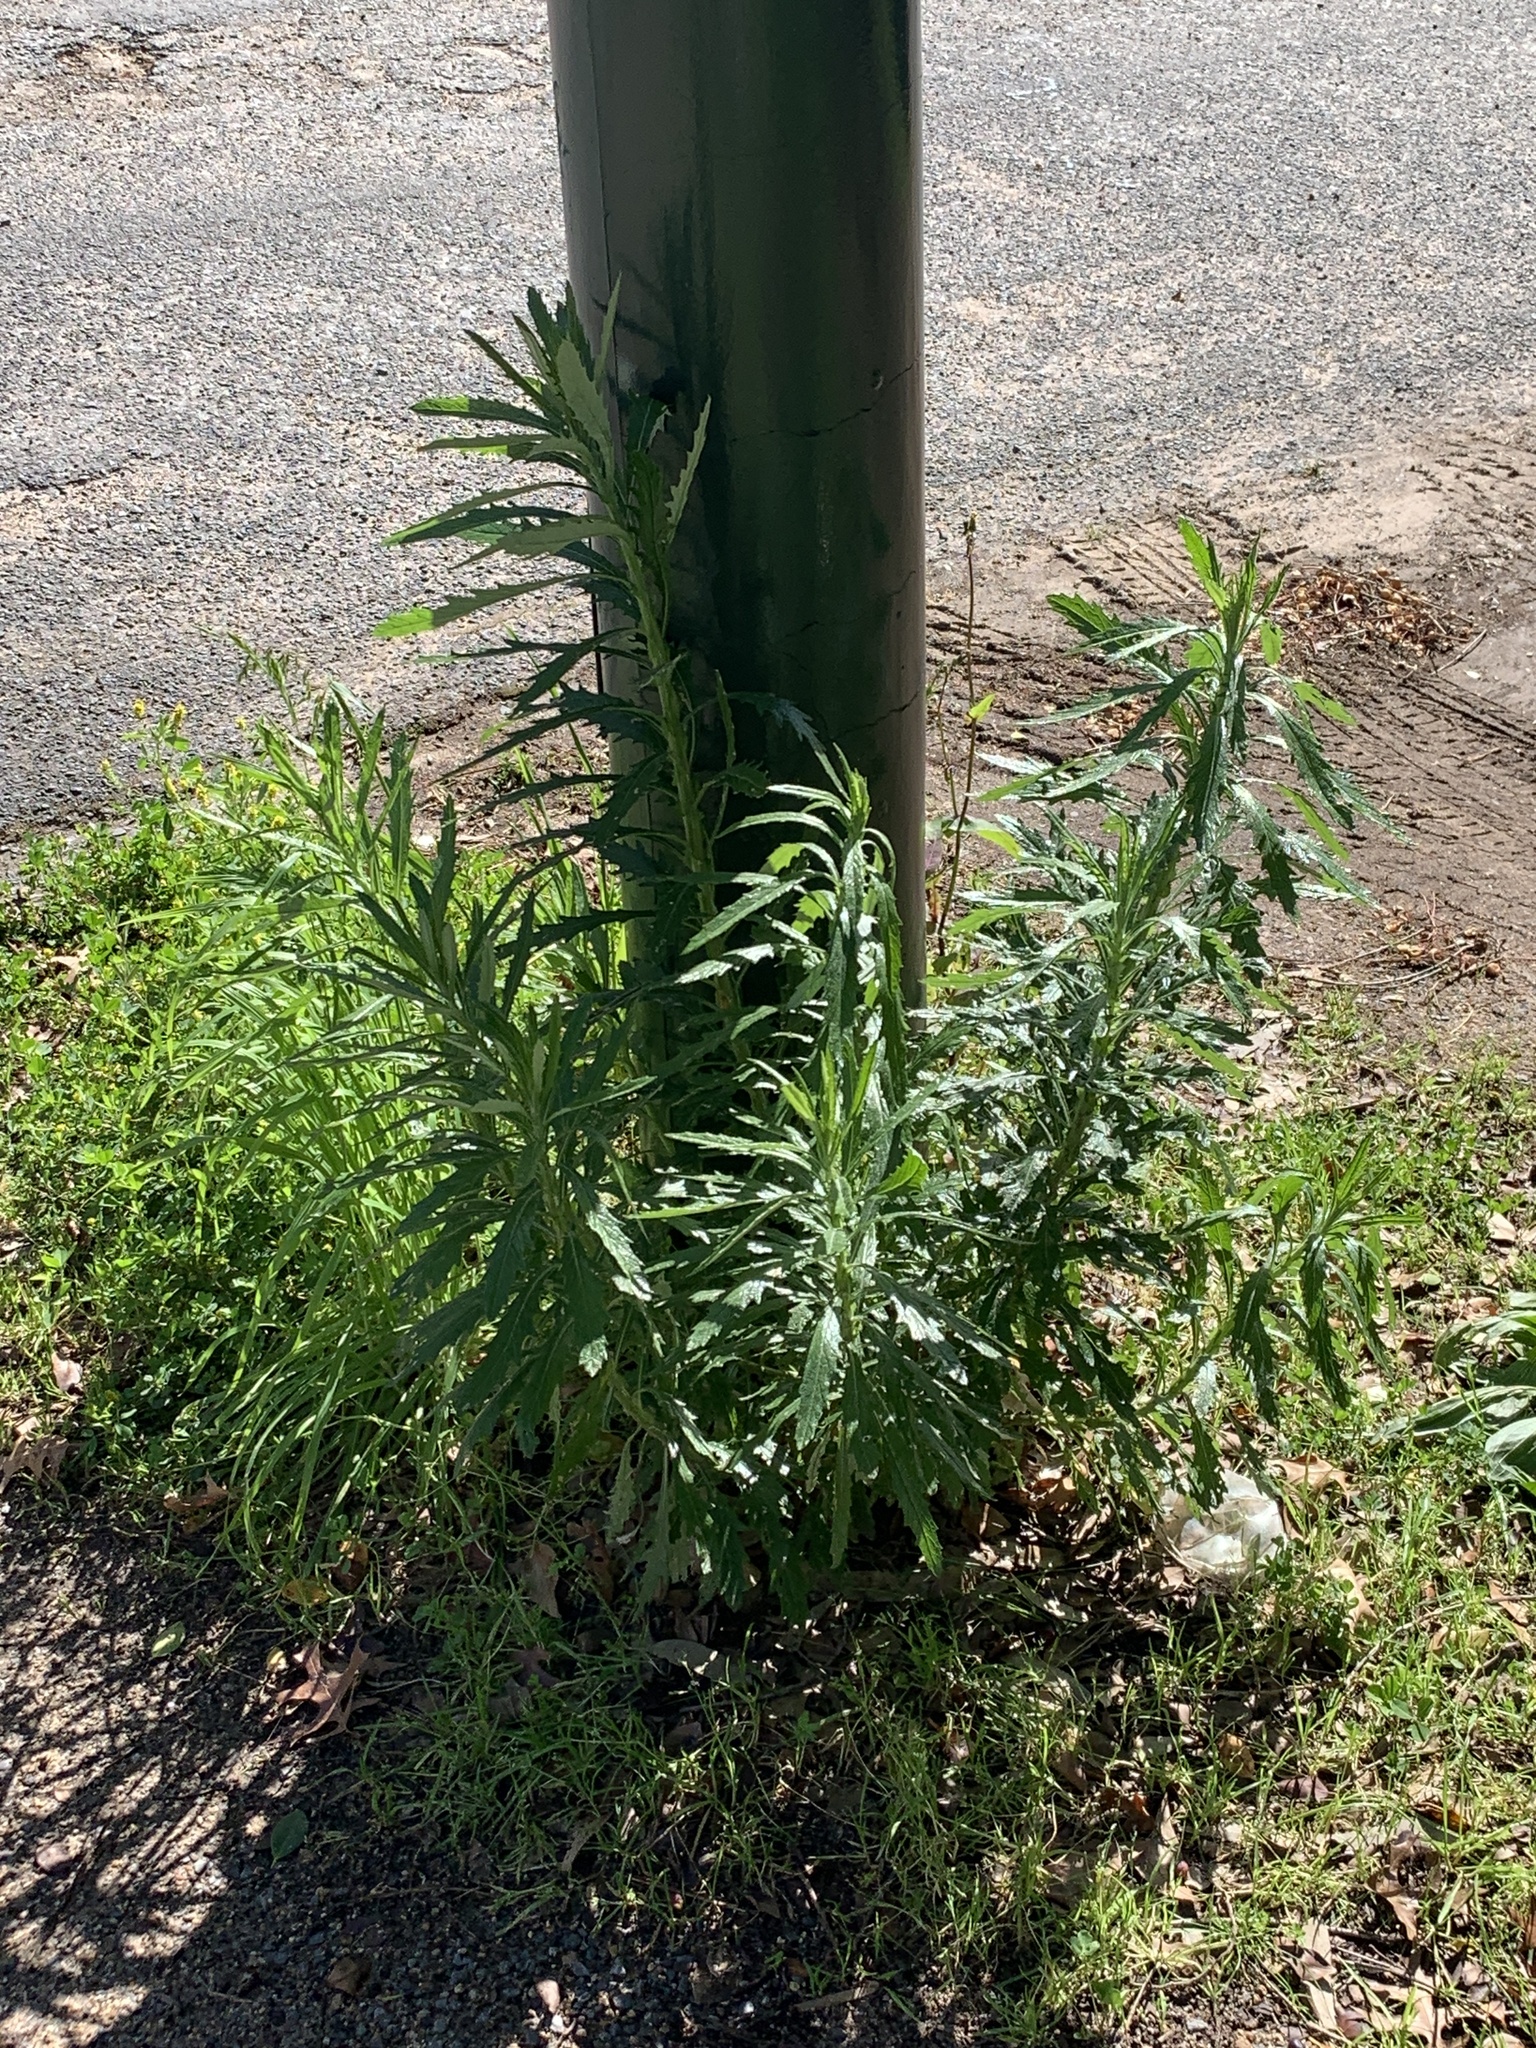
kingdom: Plantae
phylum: Tracheophyta
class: Magnoliopsida
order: Asterales
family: Asteraceae
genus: Senecio
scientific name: Senecio pterophorus
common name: Shoddy ragwort
